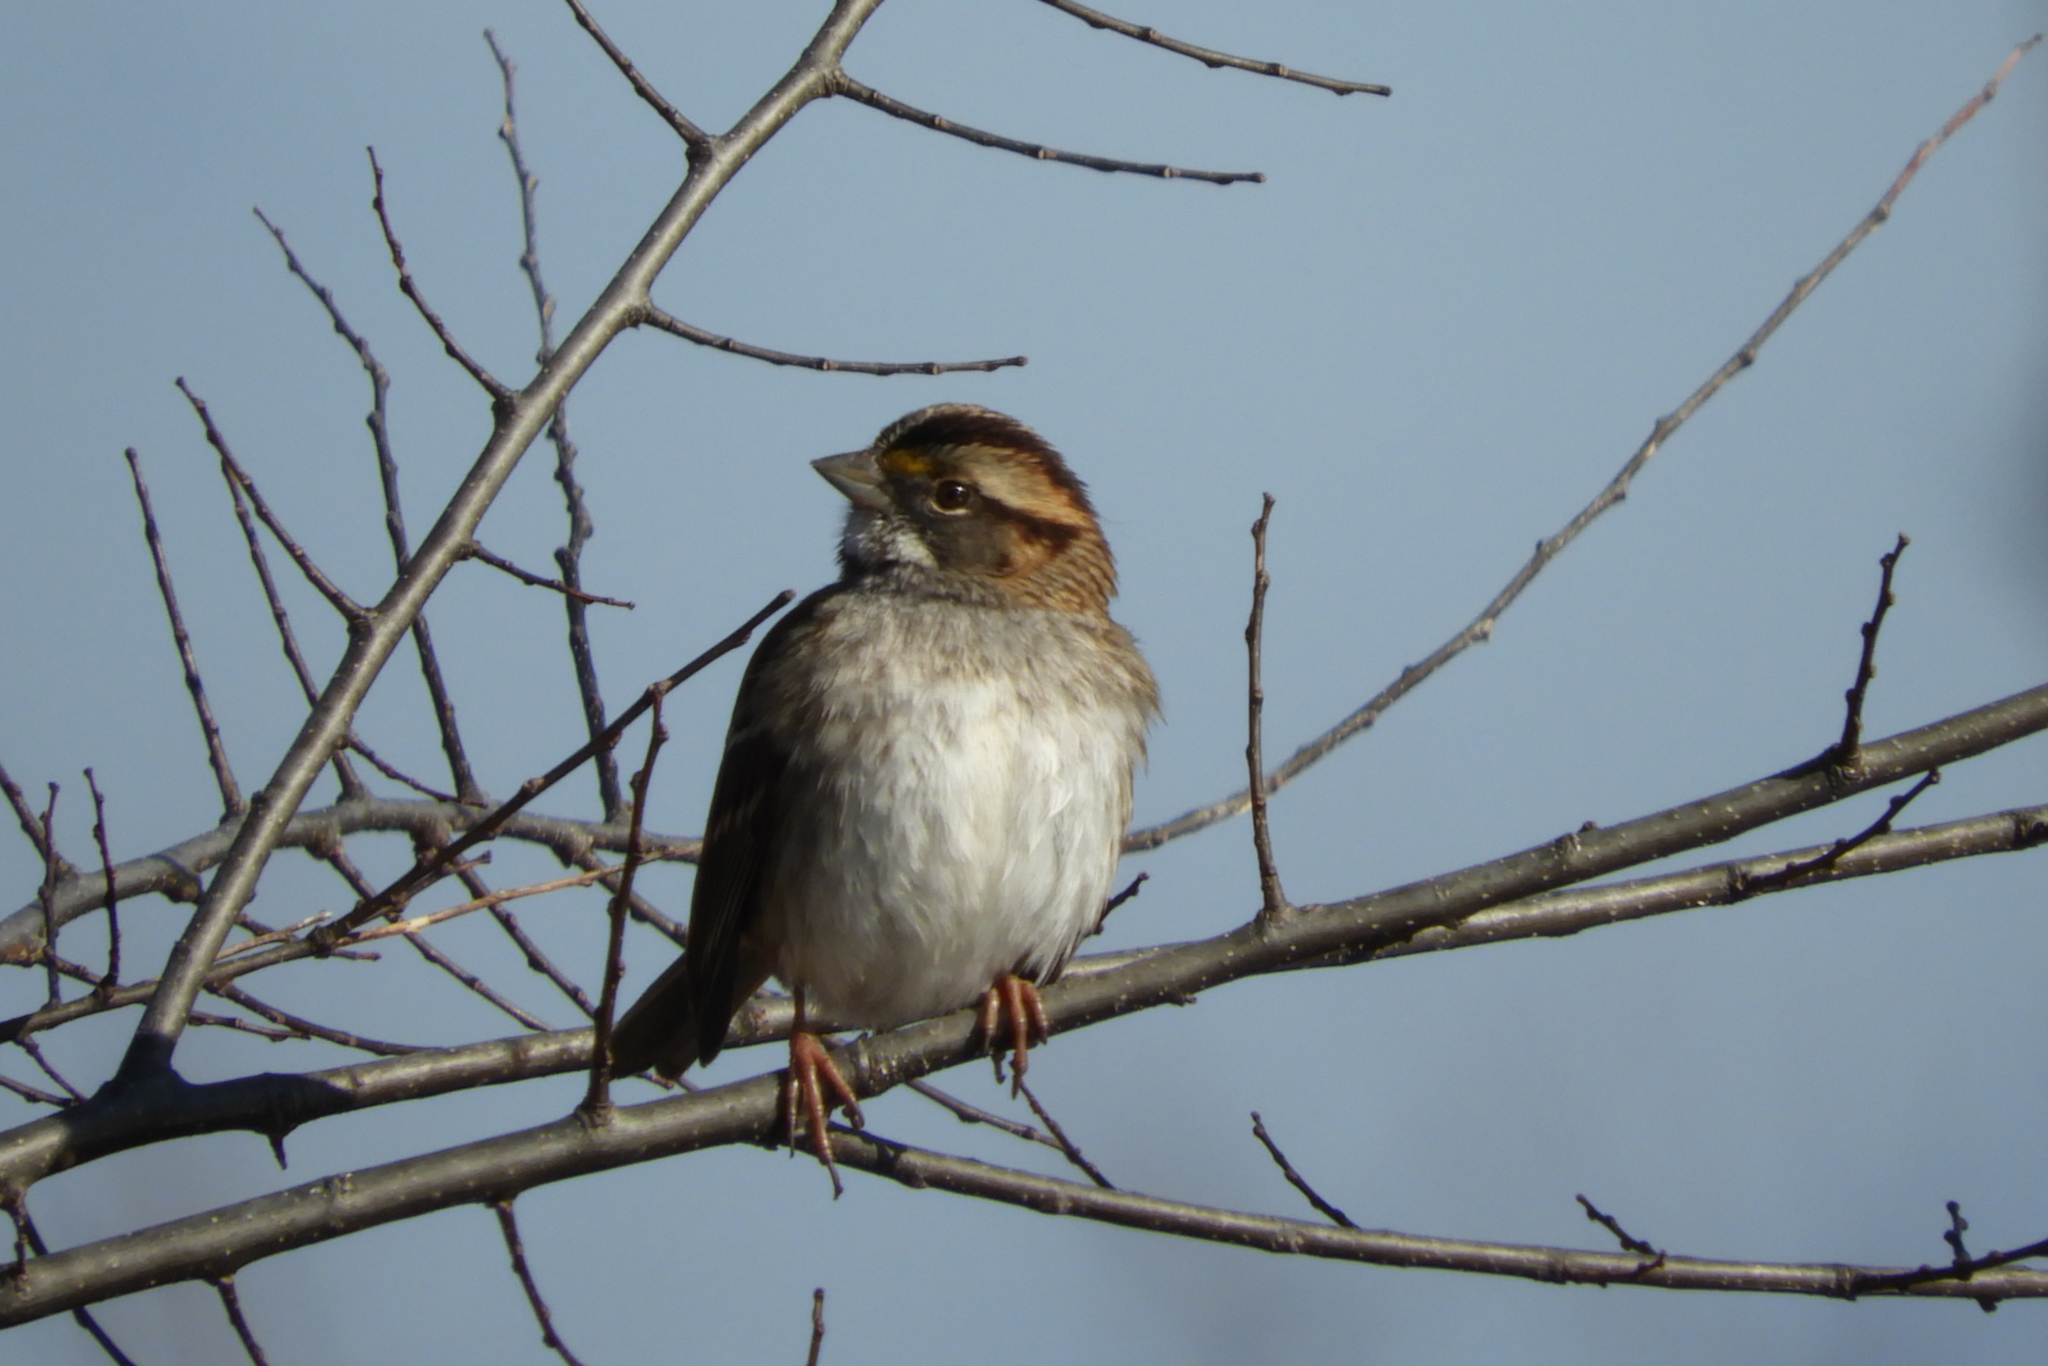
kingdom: Animalia
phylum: Chordata
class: Aves
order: Passeriformes
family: Passerellidae
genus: Zonotrichia
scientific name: Zonotrichia albicollis
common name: White-throated sparrow
